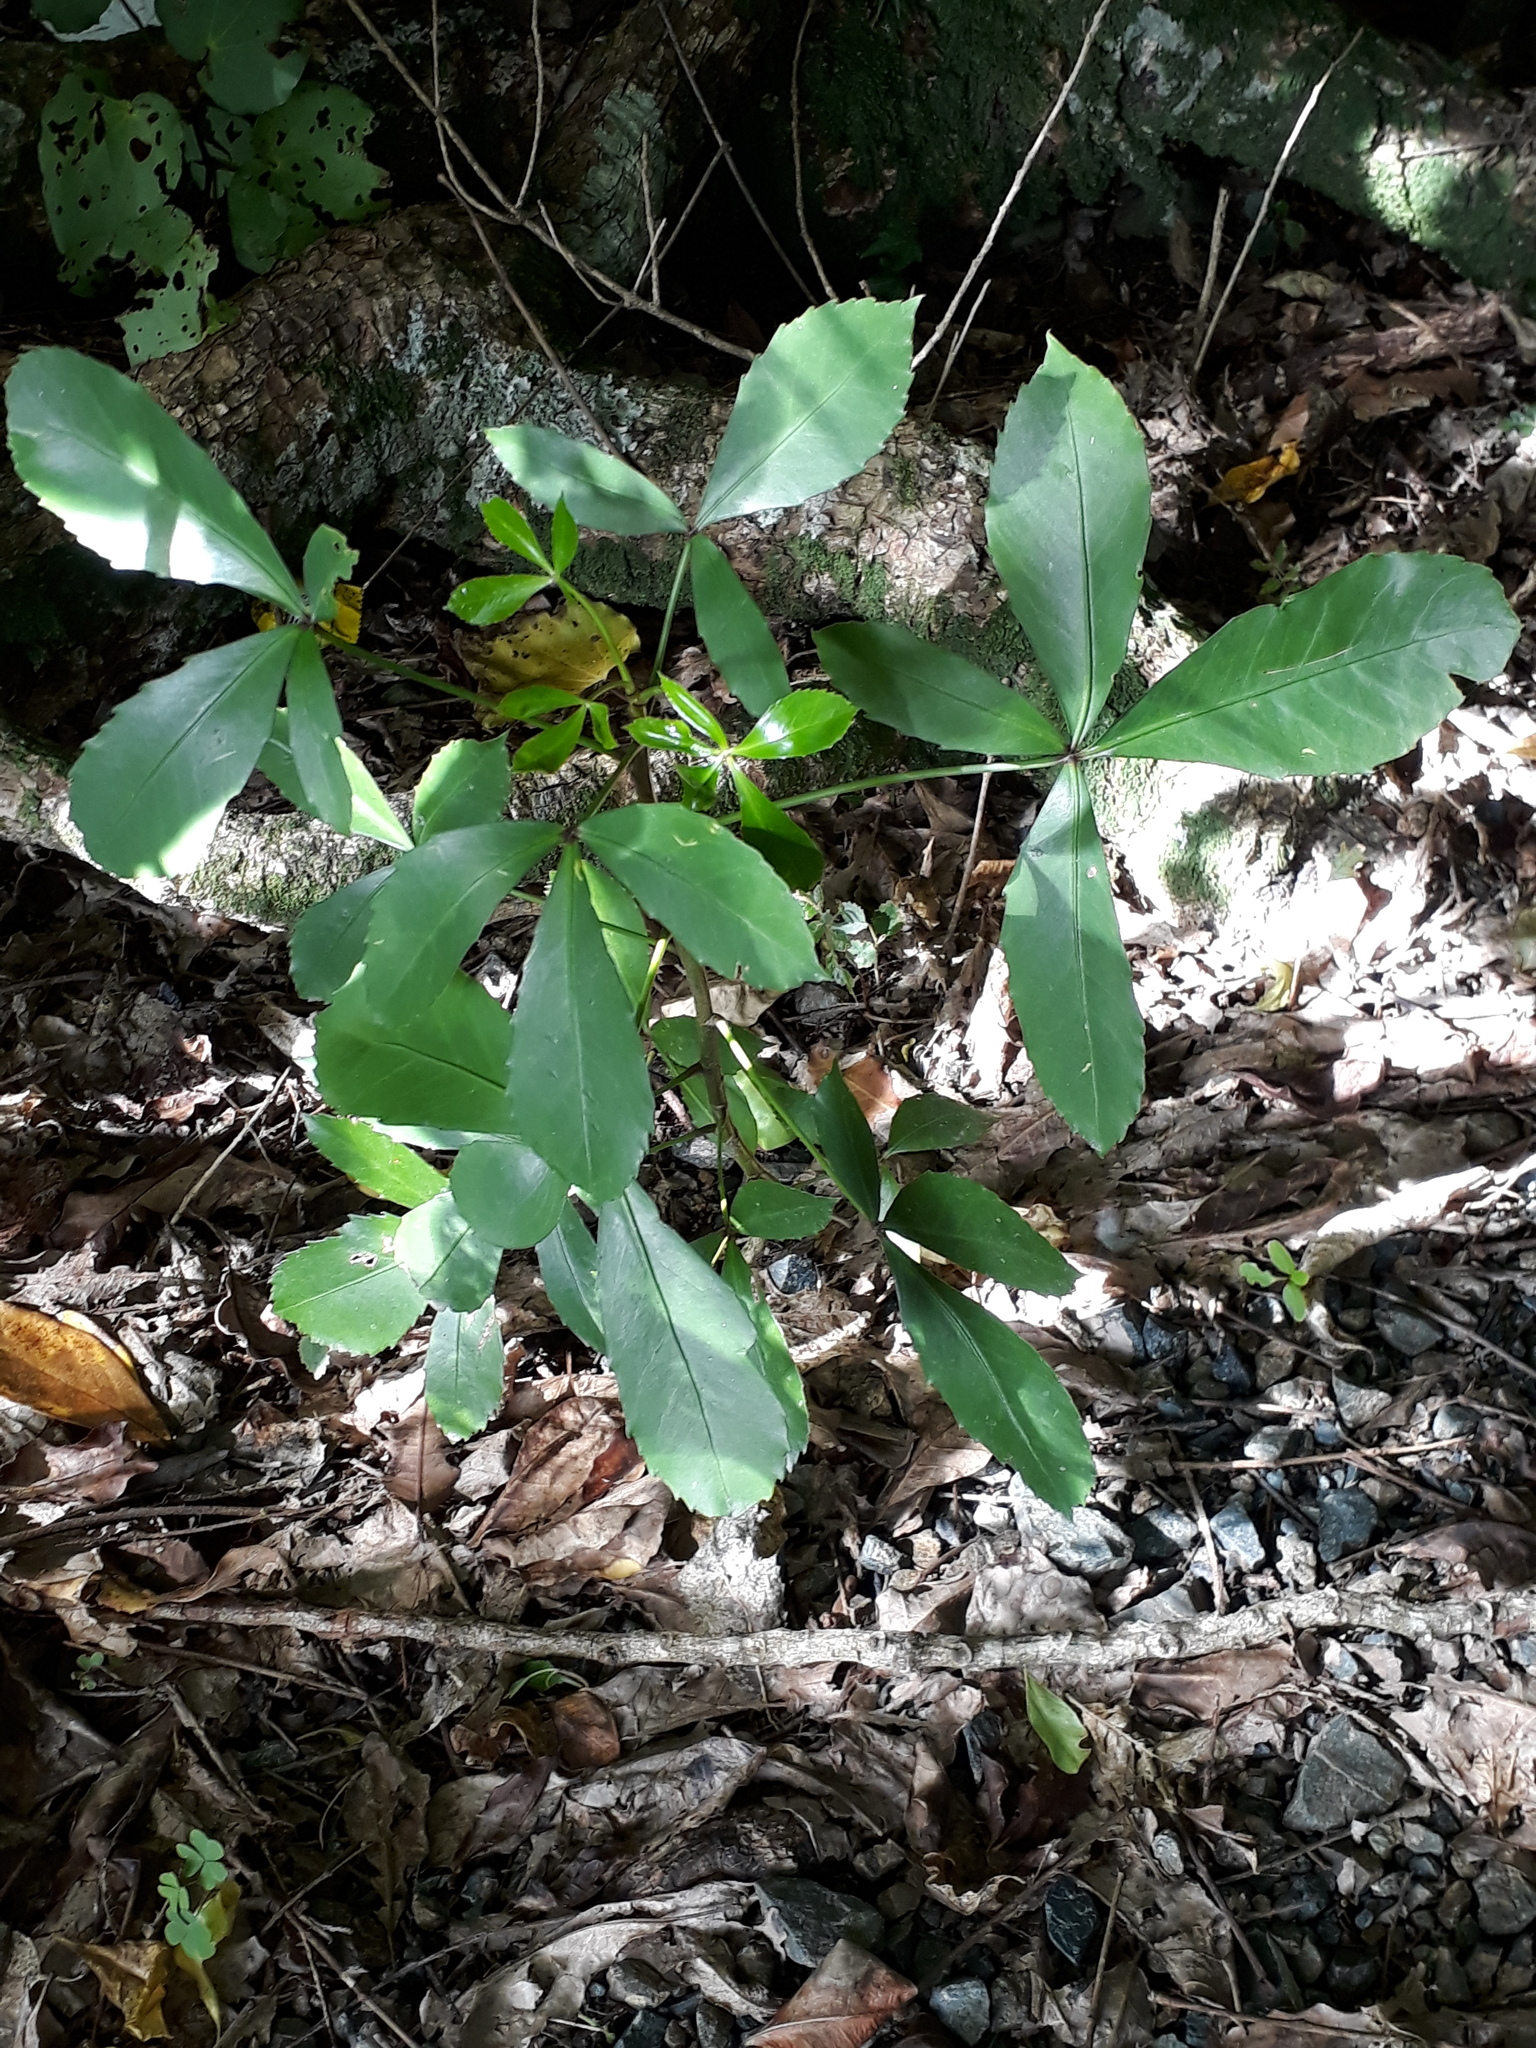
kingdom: Plantae
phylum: Tracheophyta
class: Magnoliopsida
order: Apiales
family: Araliaceae
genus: Pseudopanax
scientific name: Pseudopanax lessonii
